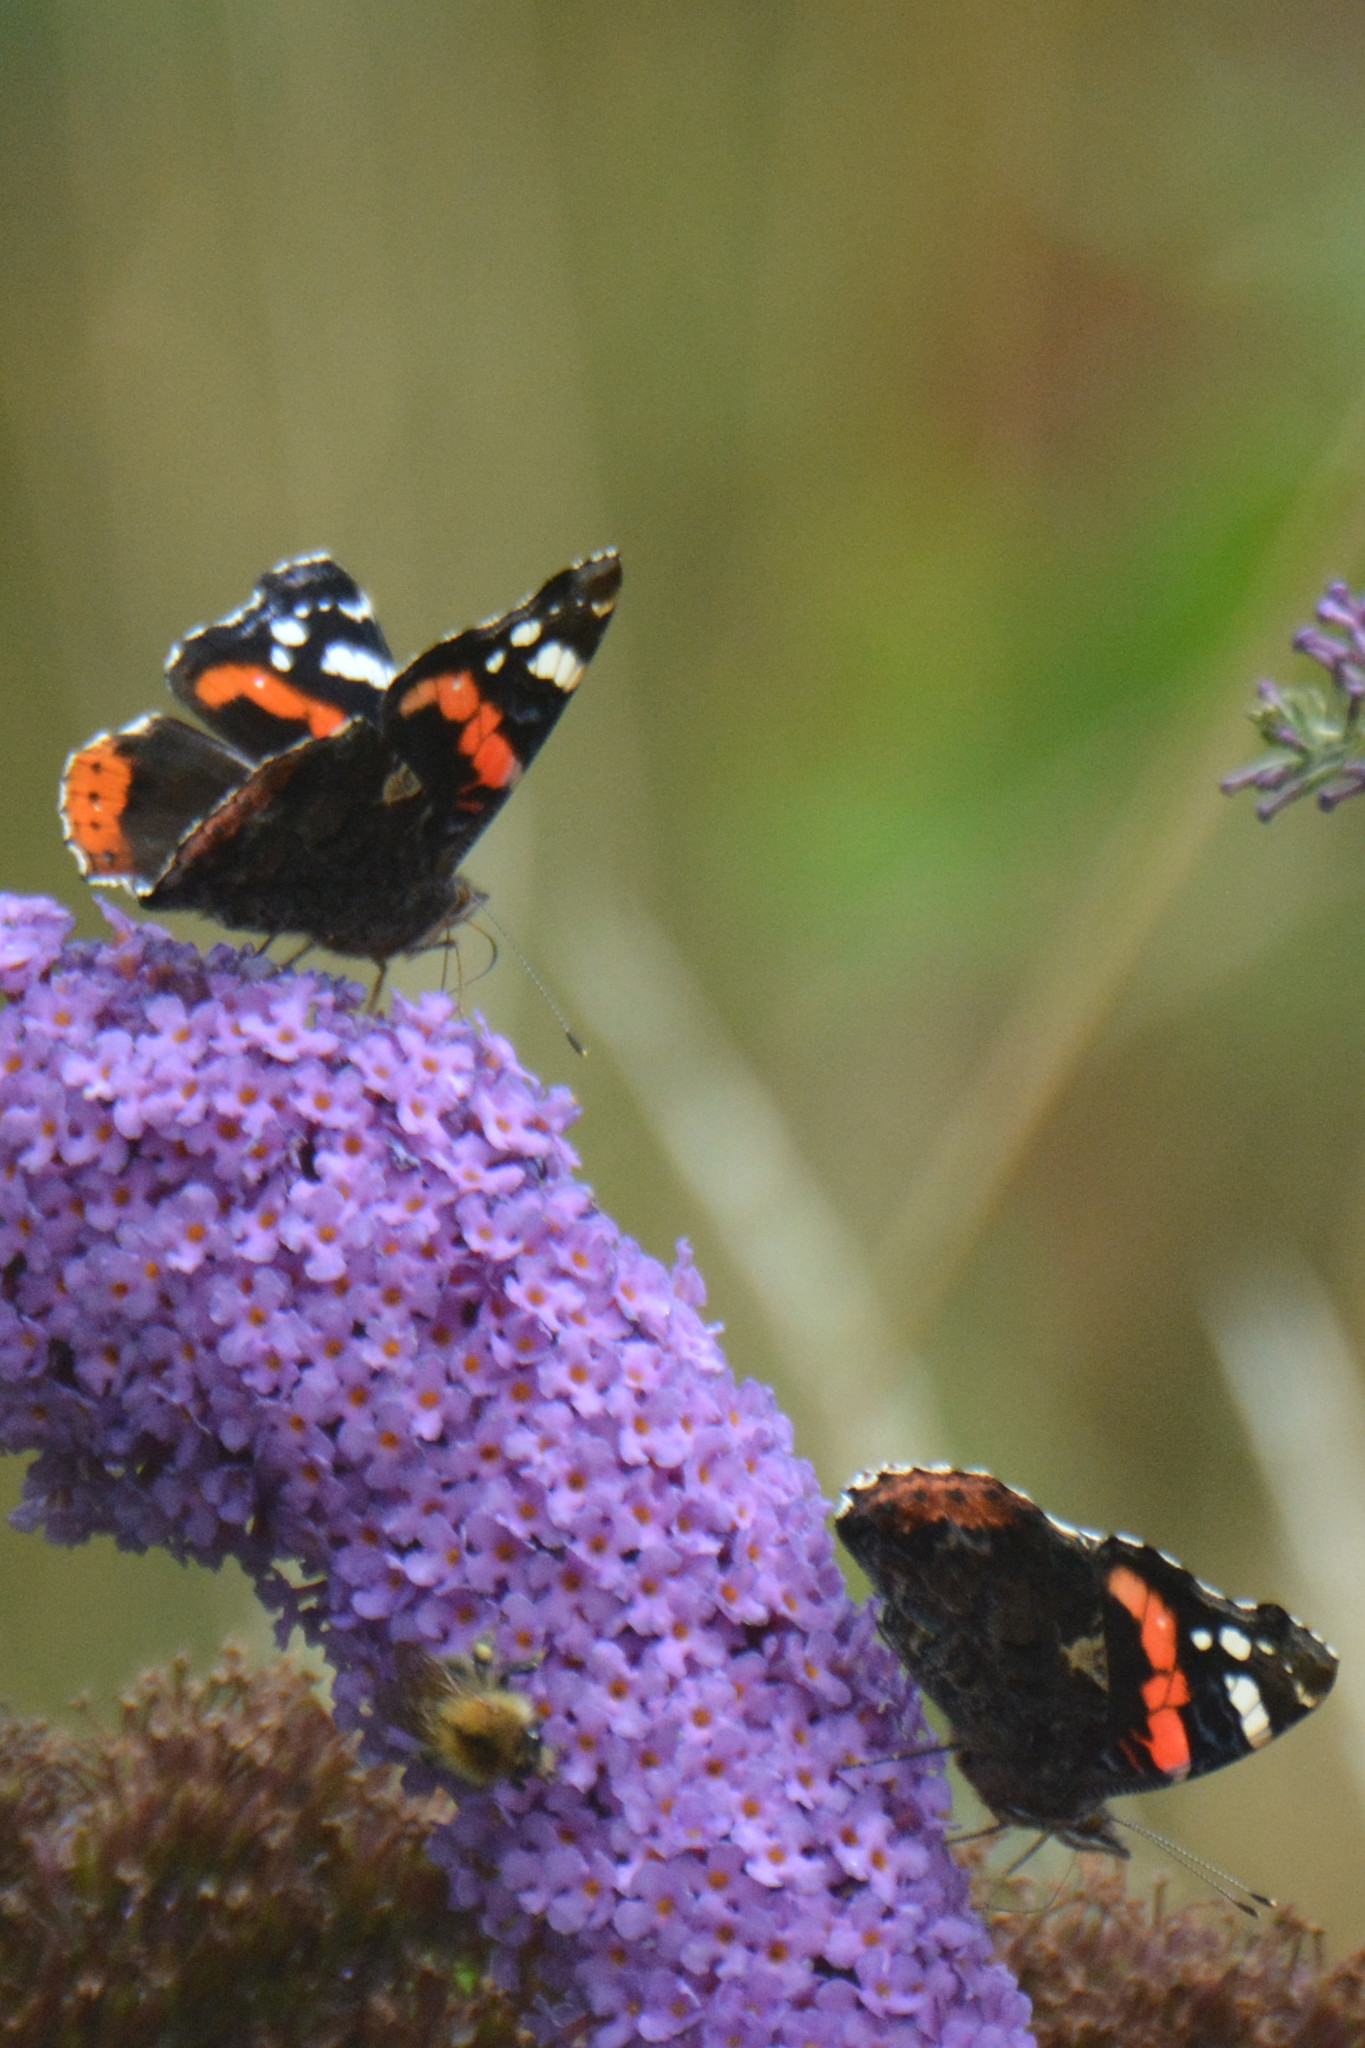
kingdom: Animalia
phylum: Arthropoda
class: Insecta
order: Lepidoptera
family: Nymphalidae
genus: Vanessa
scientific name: Vanessa atalanta
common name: Red admiral
